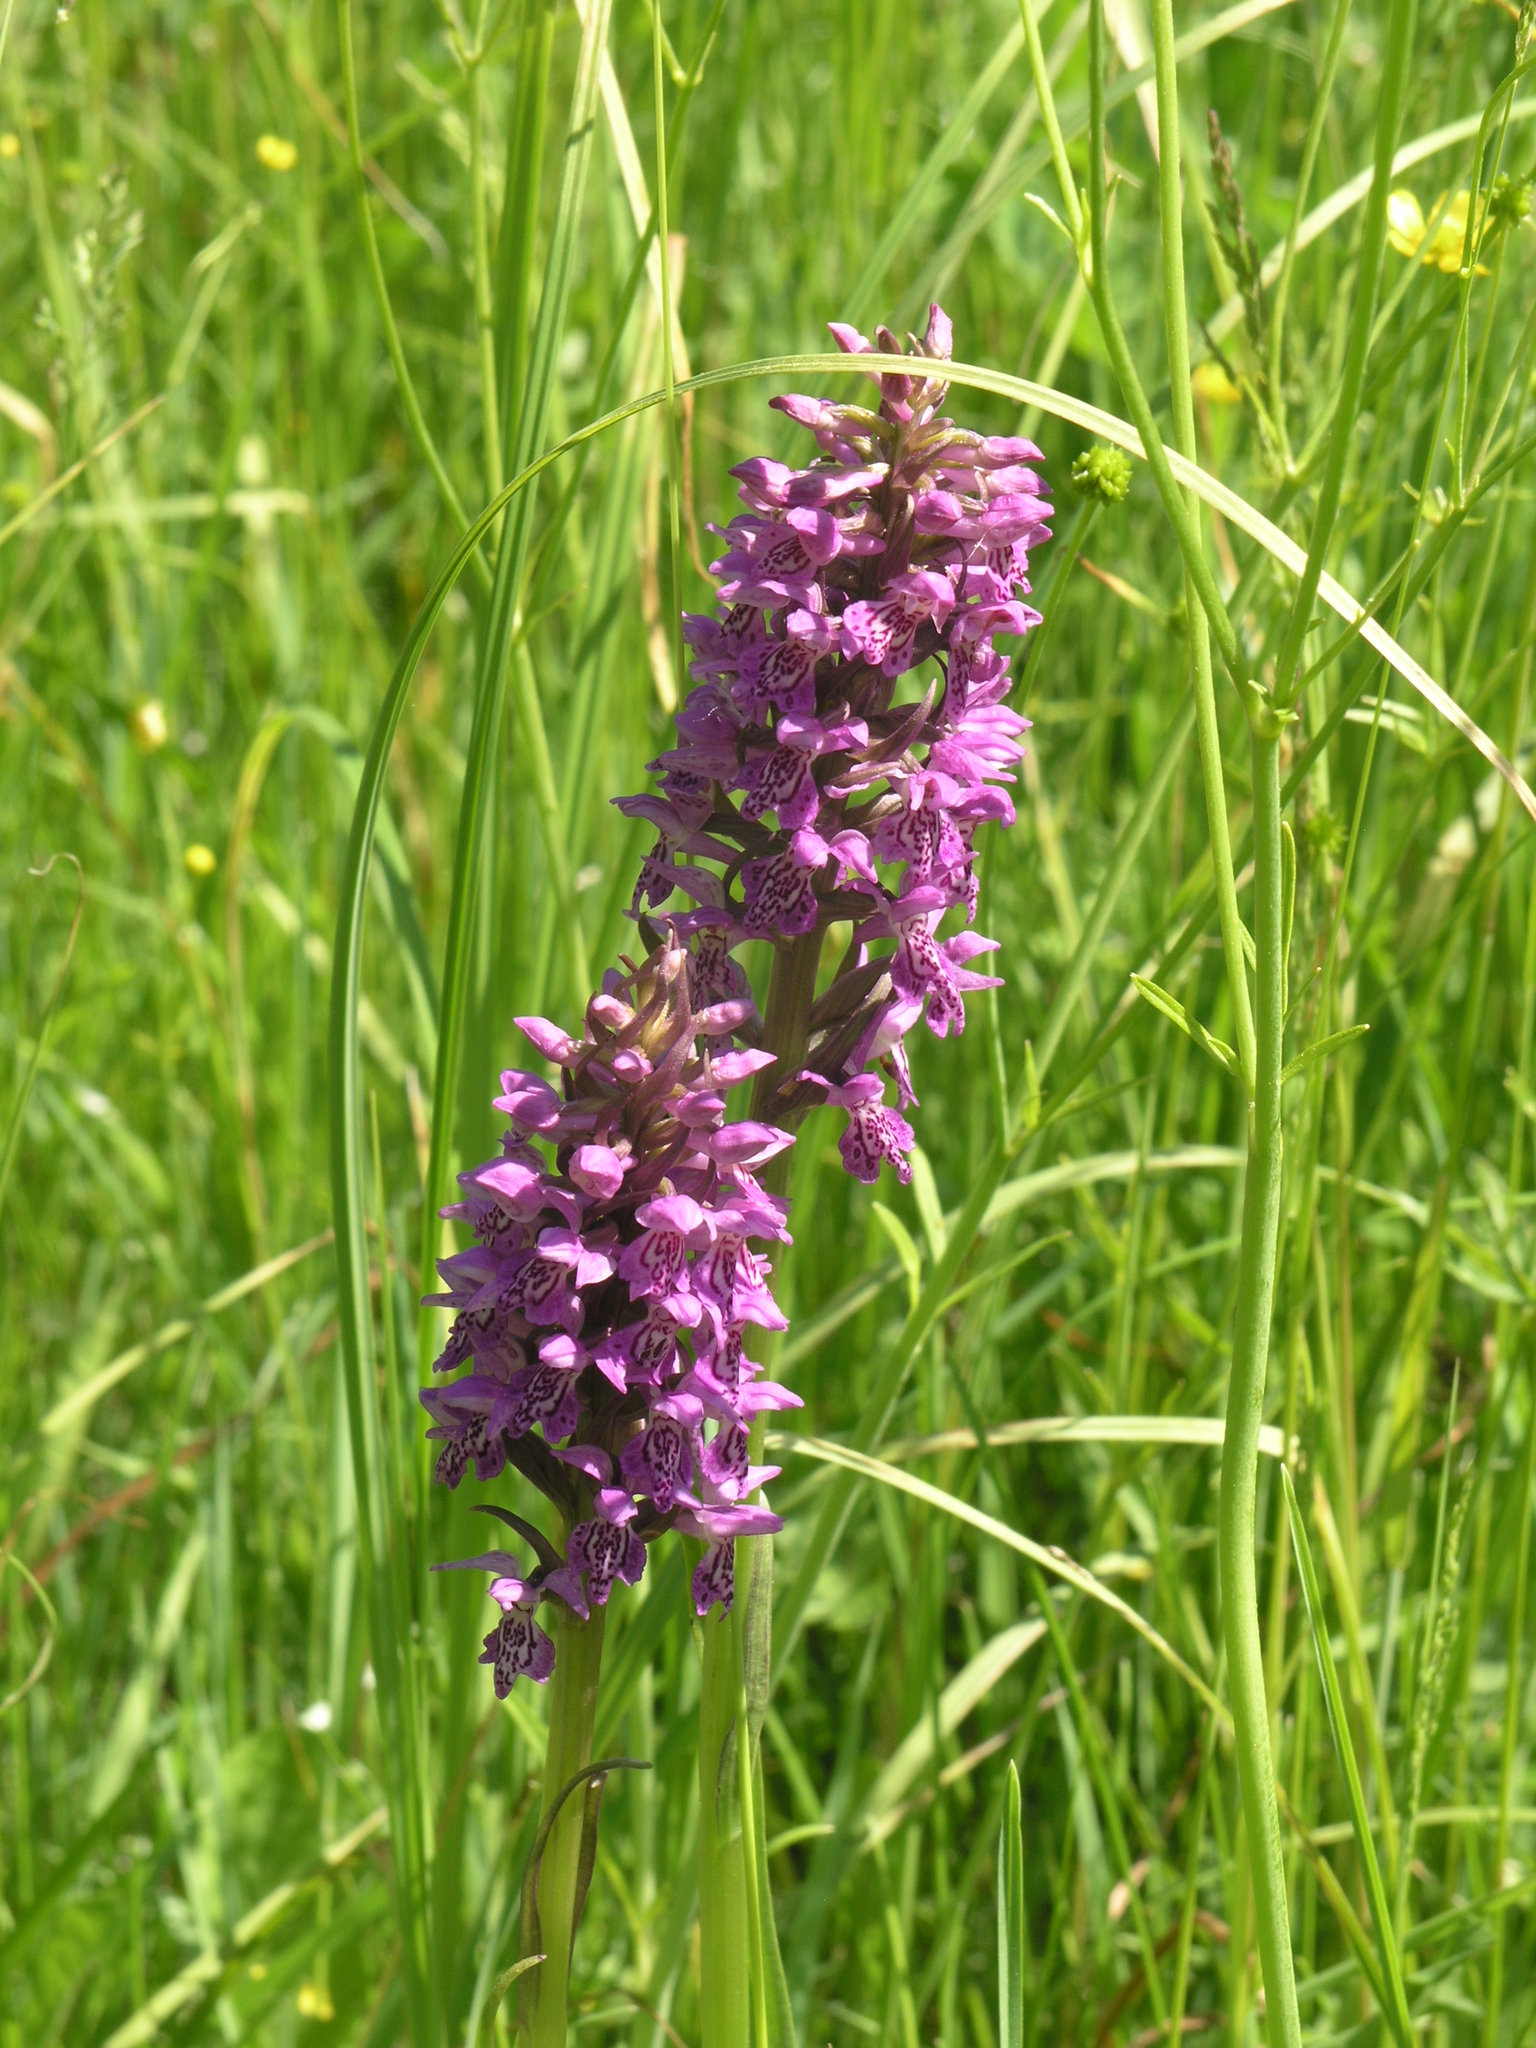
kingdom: Plantae
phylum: Tracheophyta
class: Liliopsida
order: Asparagales
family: Orchidaceae
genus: Dactylorhiza
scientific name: Dactylorhiza sibirica
